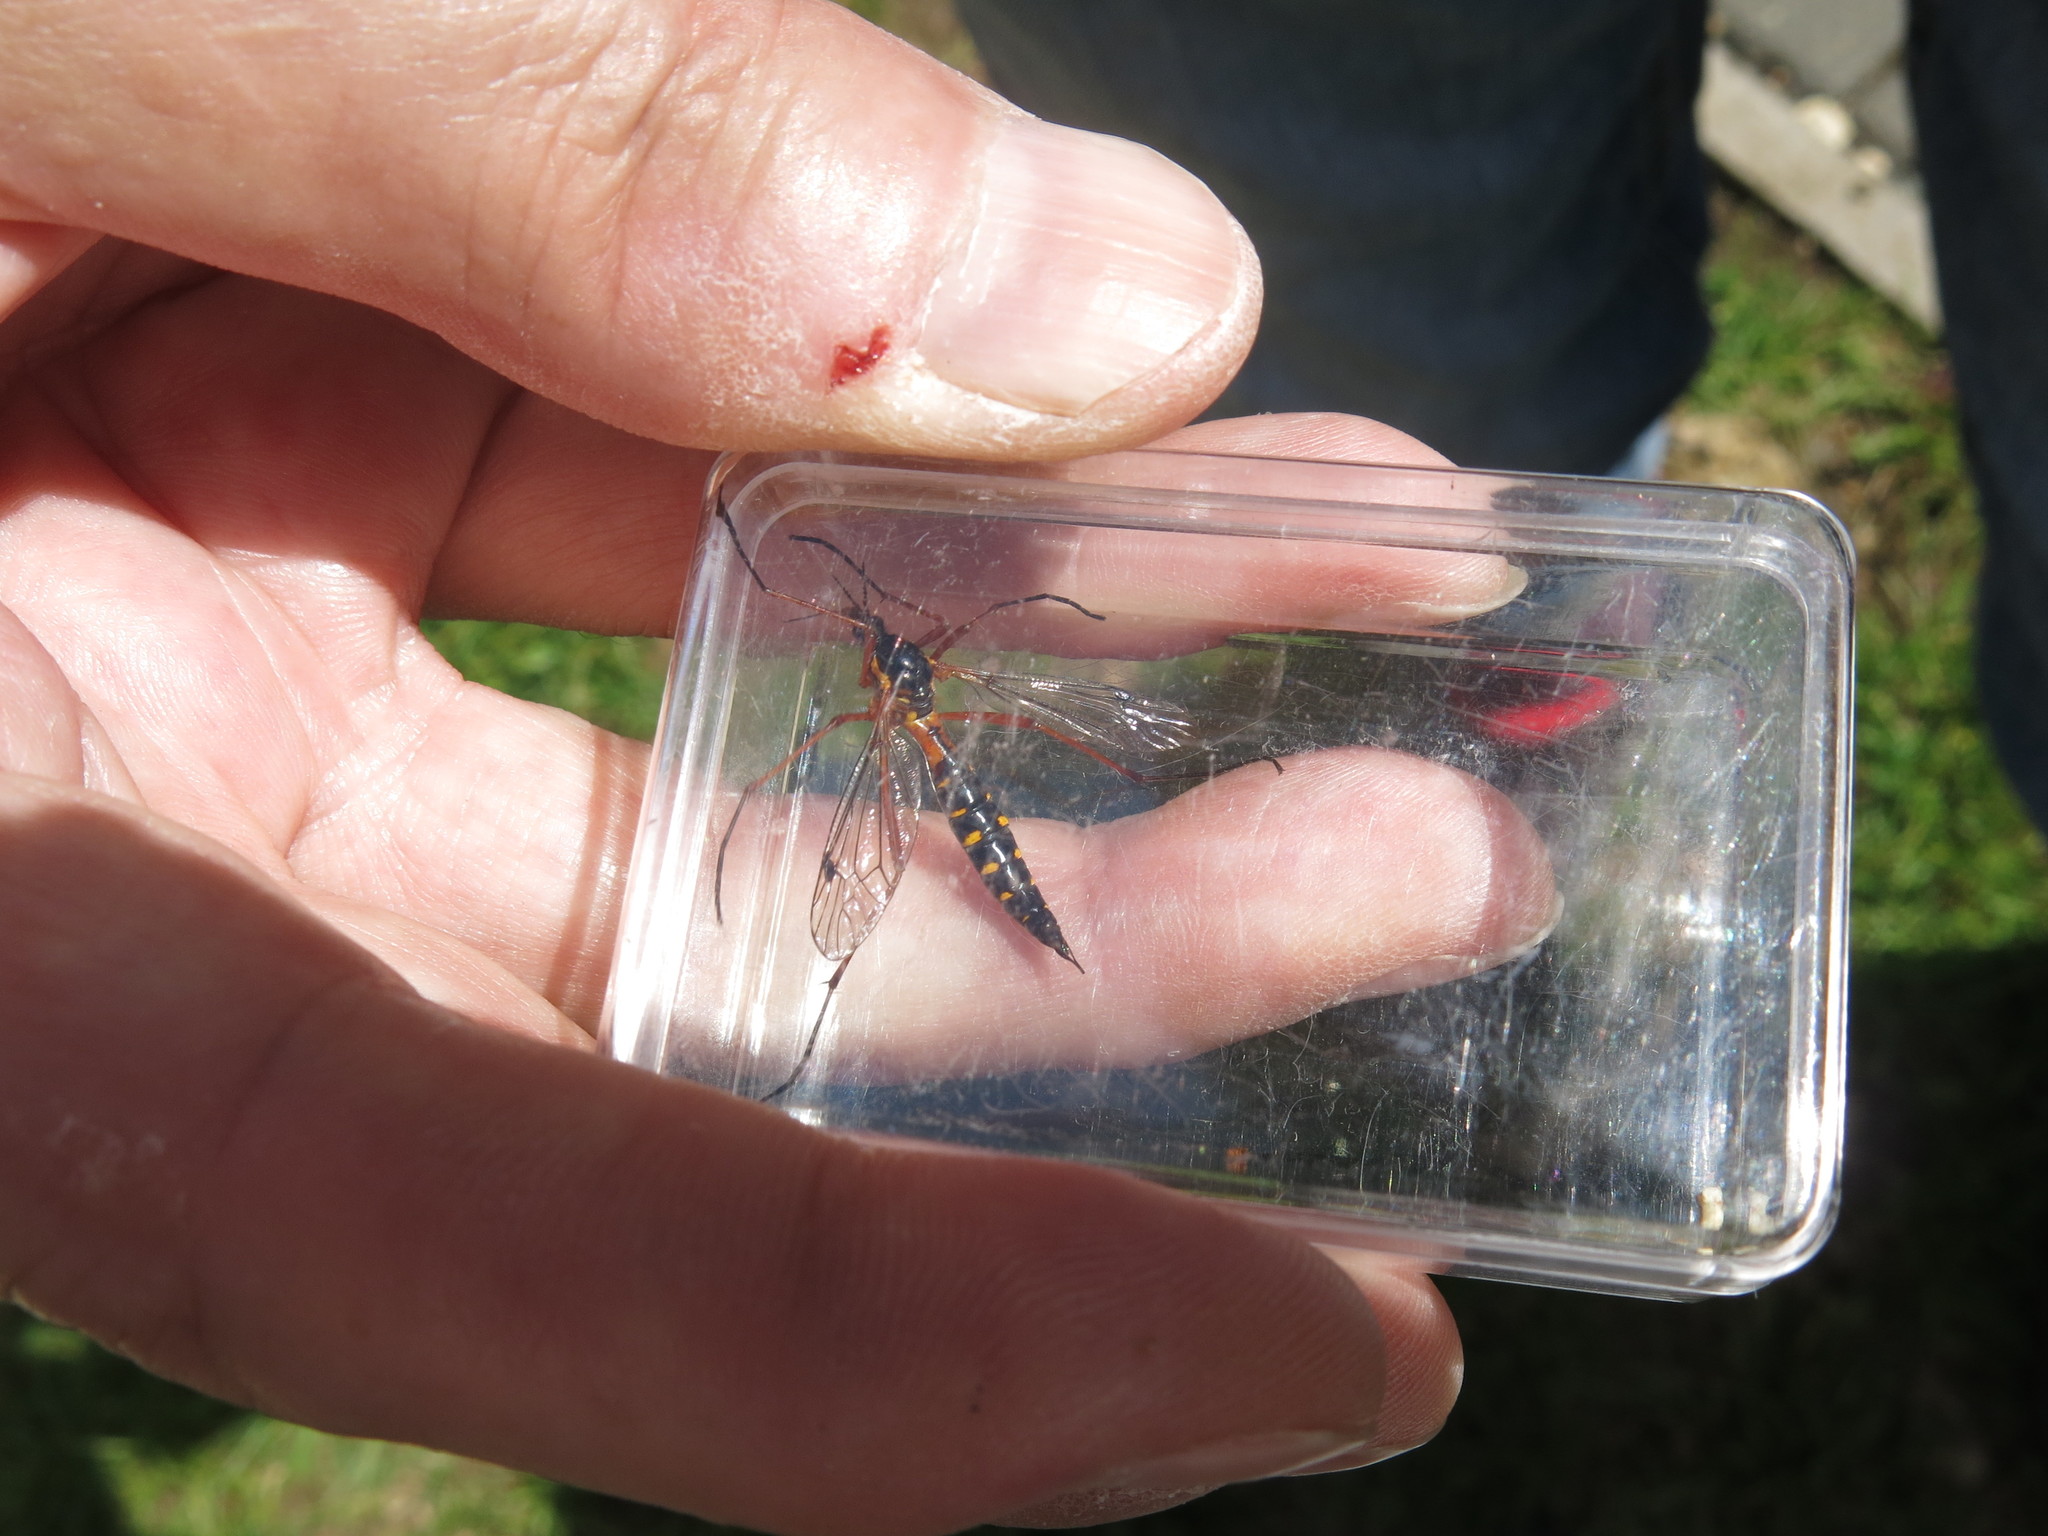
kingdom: Animalia
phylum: Arthropoda
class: Insecta
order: Diptera
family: Tipulidae
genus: Ctenophora
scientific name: Ctenophora pectinicornis
